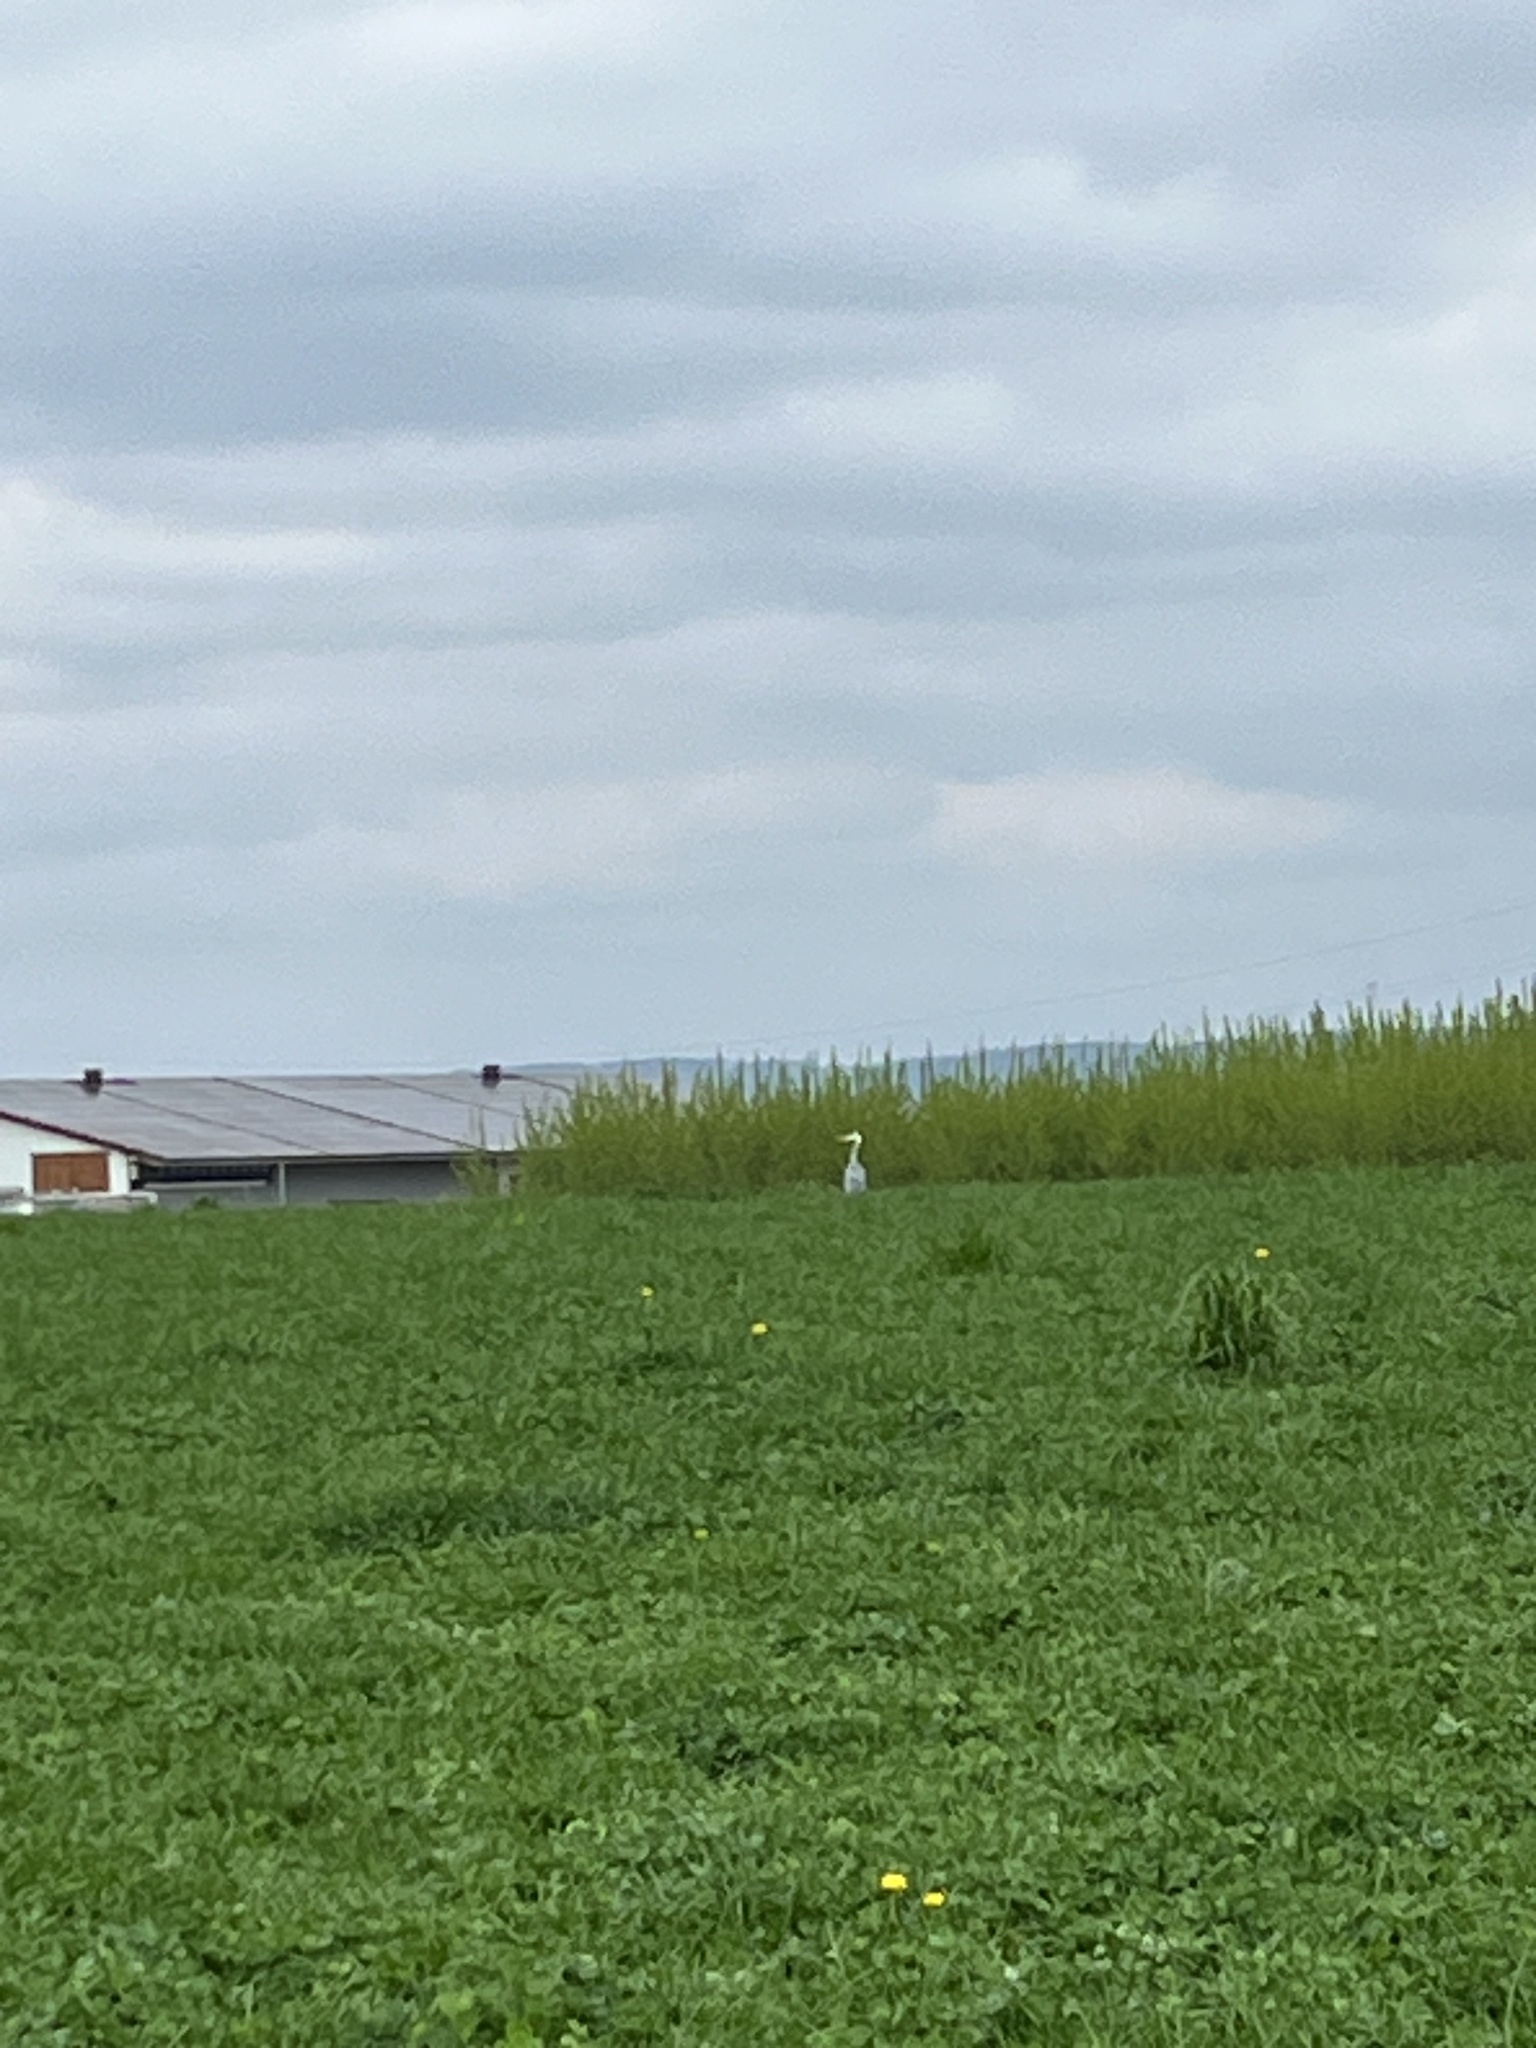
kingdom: Animalia
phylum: Chordata
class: Aves
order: Pelecaniformes
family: Ardeidae
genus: Ardea
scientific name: Ardea cinerea
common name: Grey heron
